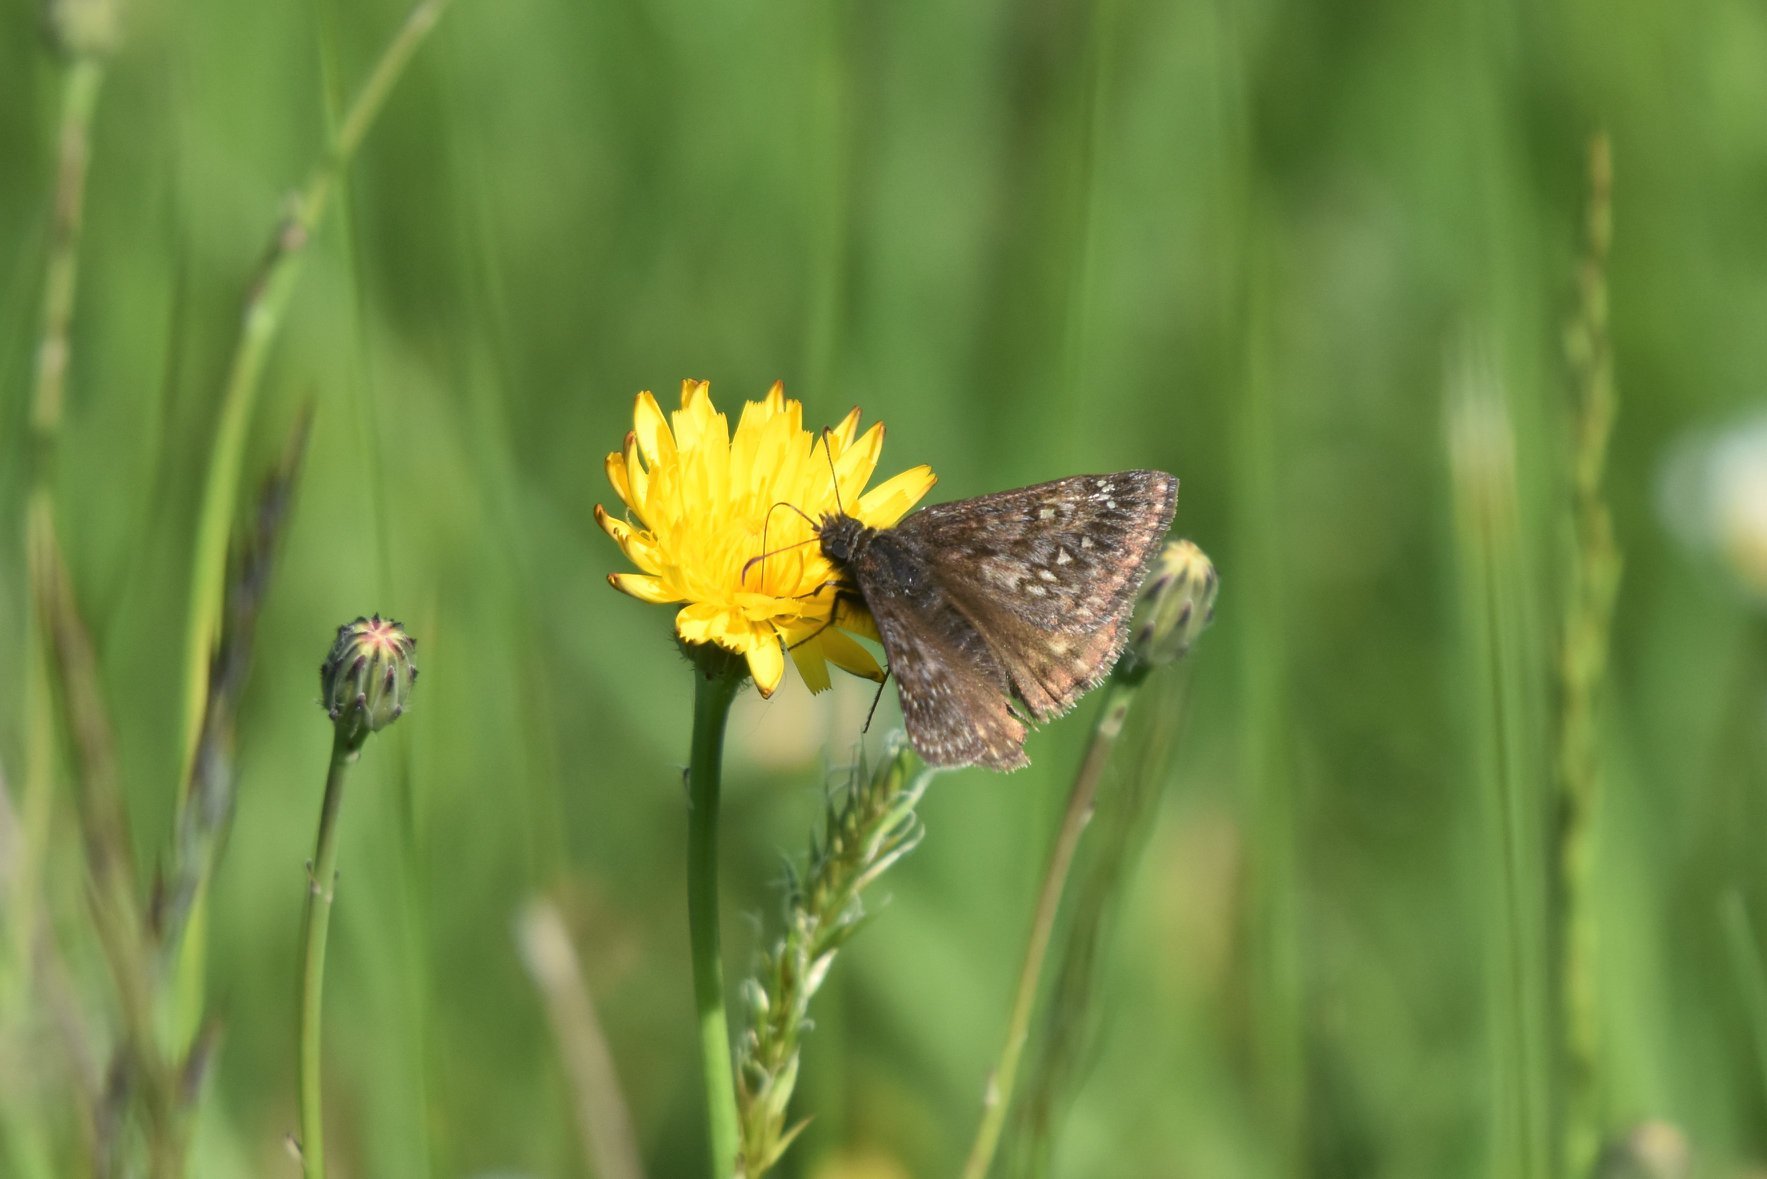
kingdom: Animalia
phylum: Arthropoda
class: Insecta
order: Lepidoptera
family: Hesperiidae
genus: Erynnis
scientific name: Erynnis propertius
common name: Propertius duskywing
